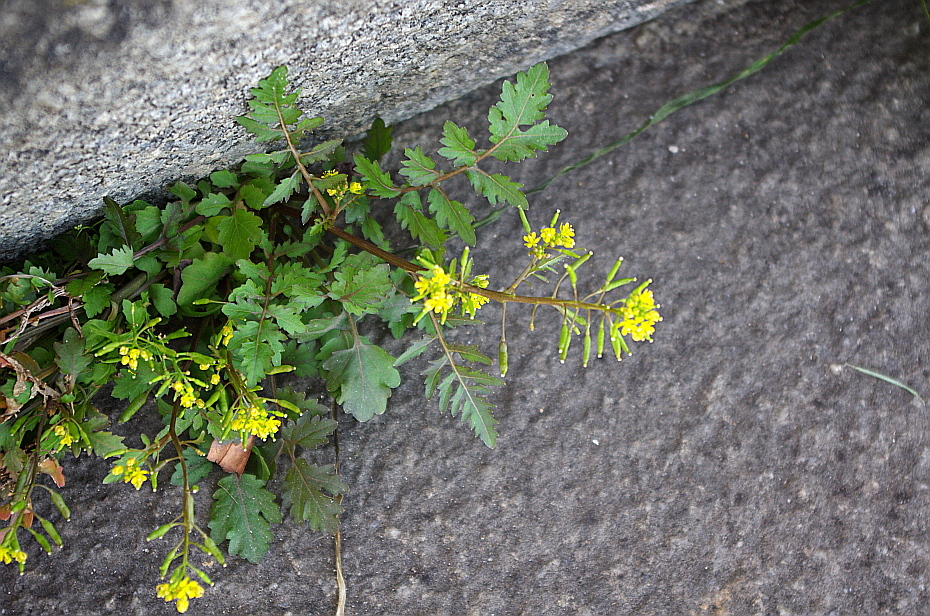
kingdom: Plantae
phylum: Tracheophyta
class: Magnoliopsida
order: Brassicales
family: Brassicaceae
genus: Rorippa
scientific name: Rorippa sylvestris
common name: Creeping yellowcress
